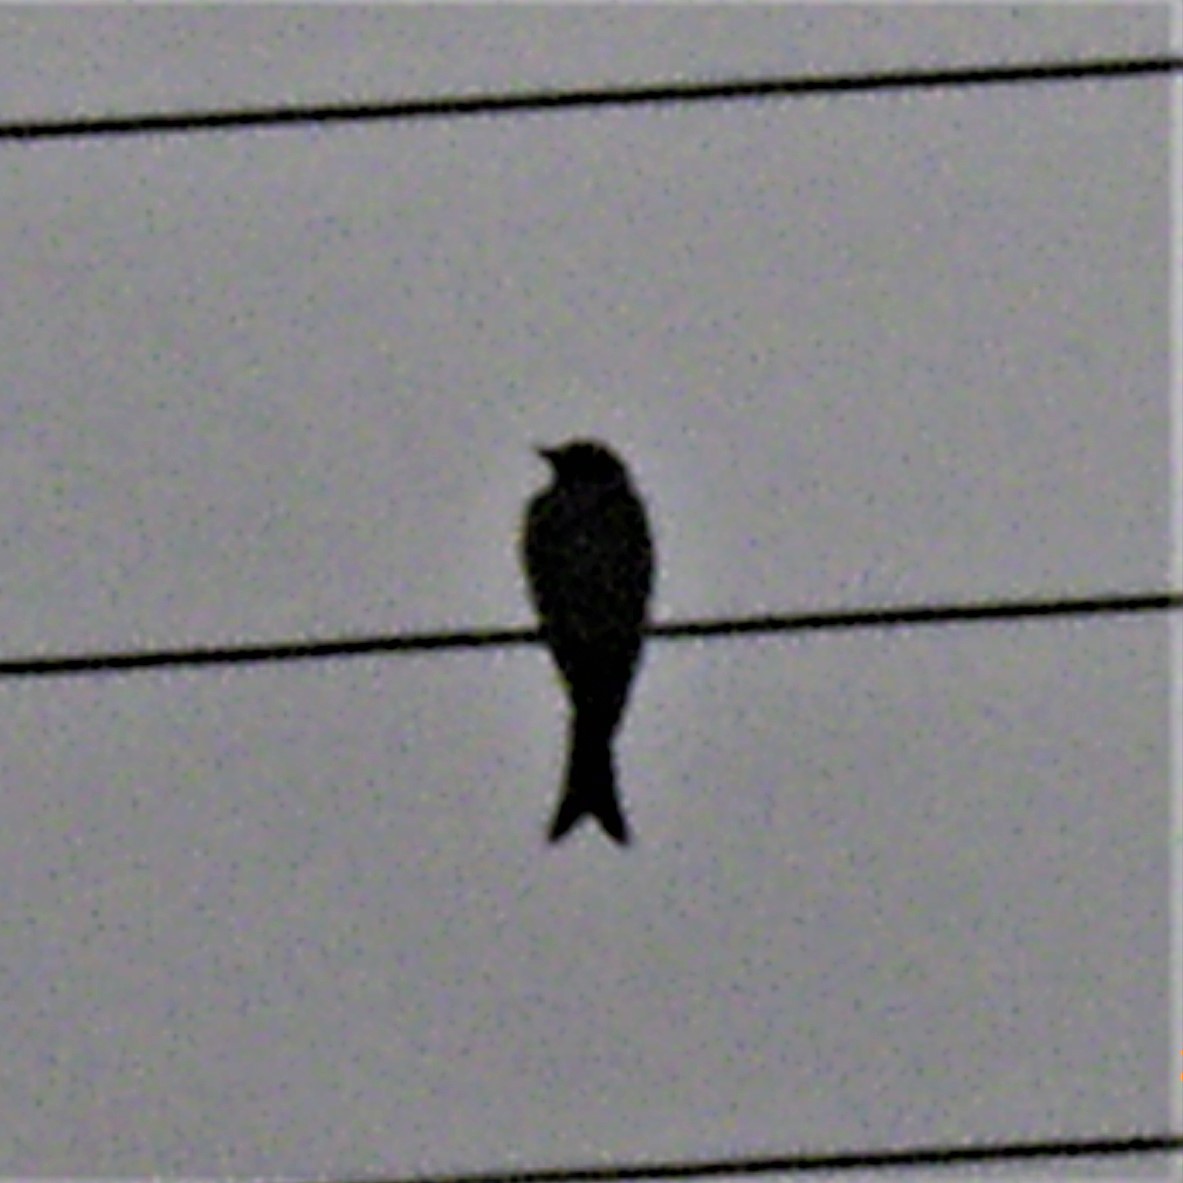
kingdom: Animalia
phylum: Chordata
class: Aves
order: Passeriformes
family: Dicruridae
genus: Dicrurus
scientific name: Dicrurus adsimilis
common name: Fork-tailed drongo
